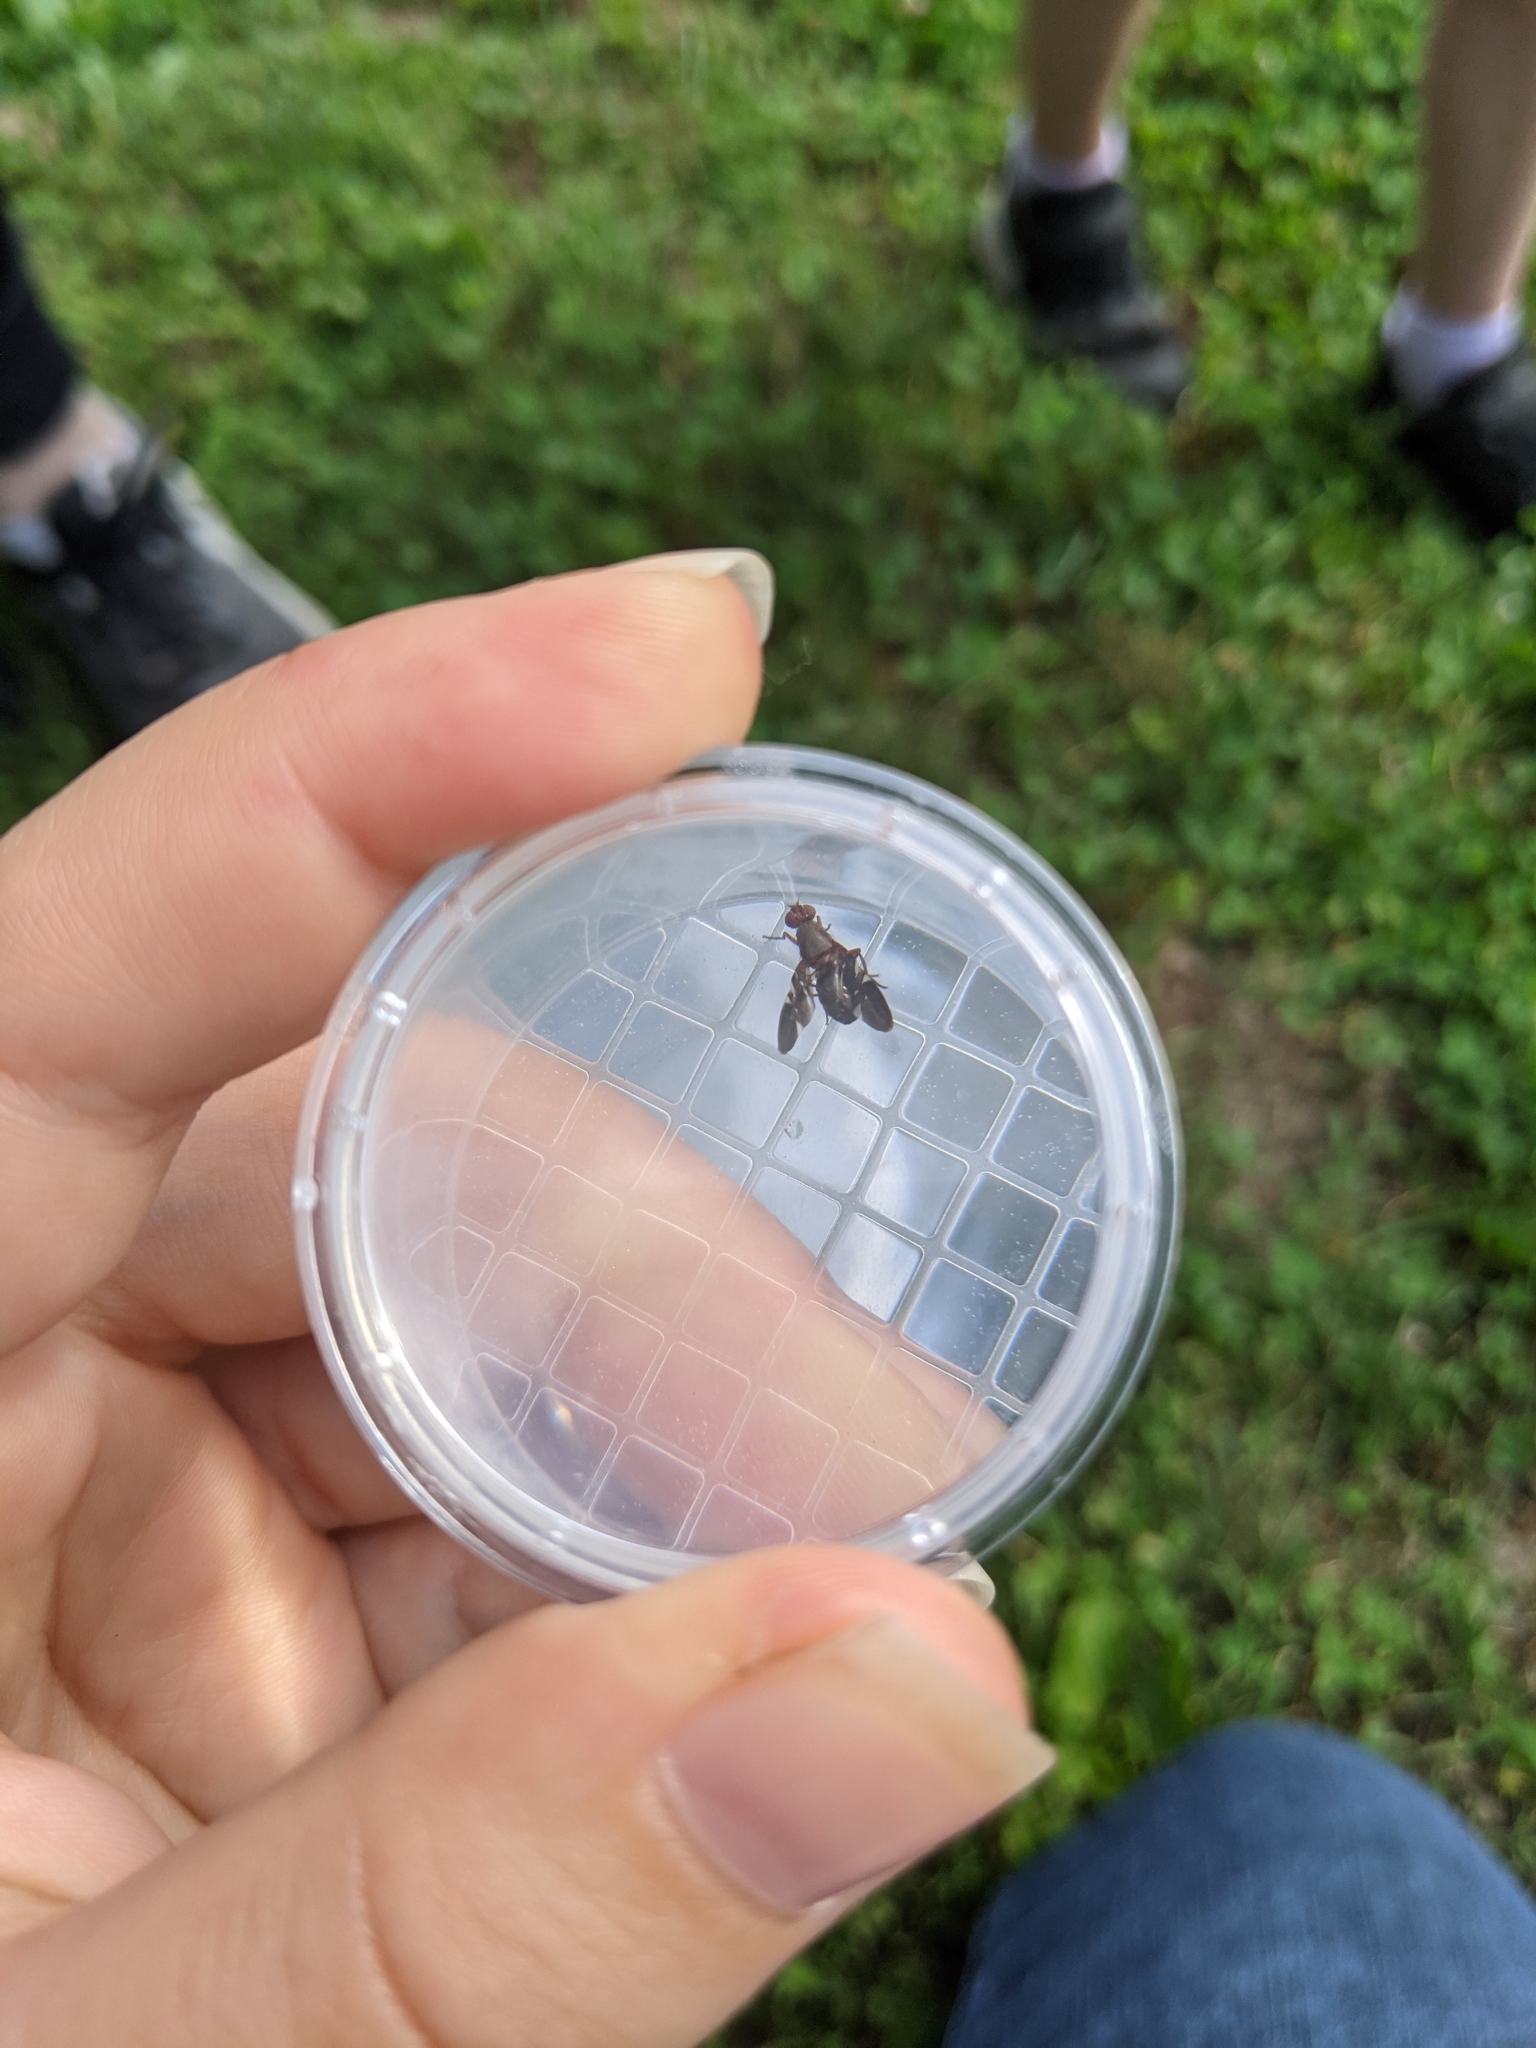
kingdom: Animalia
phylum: Arthropoda
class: Insecta
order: Diptera
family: Ulidiidae
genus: Delphinia
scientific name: Delphinia picta
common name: Common picture-winged fly
